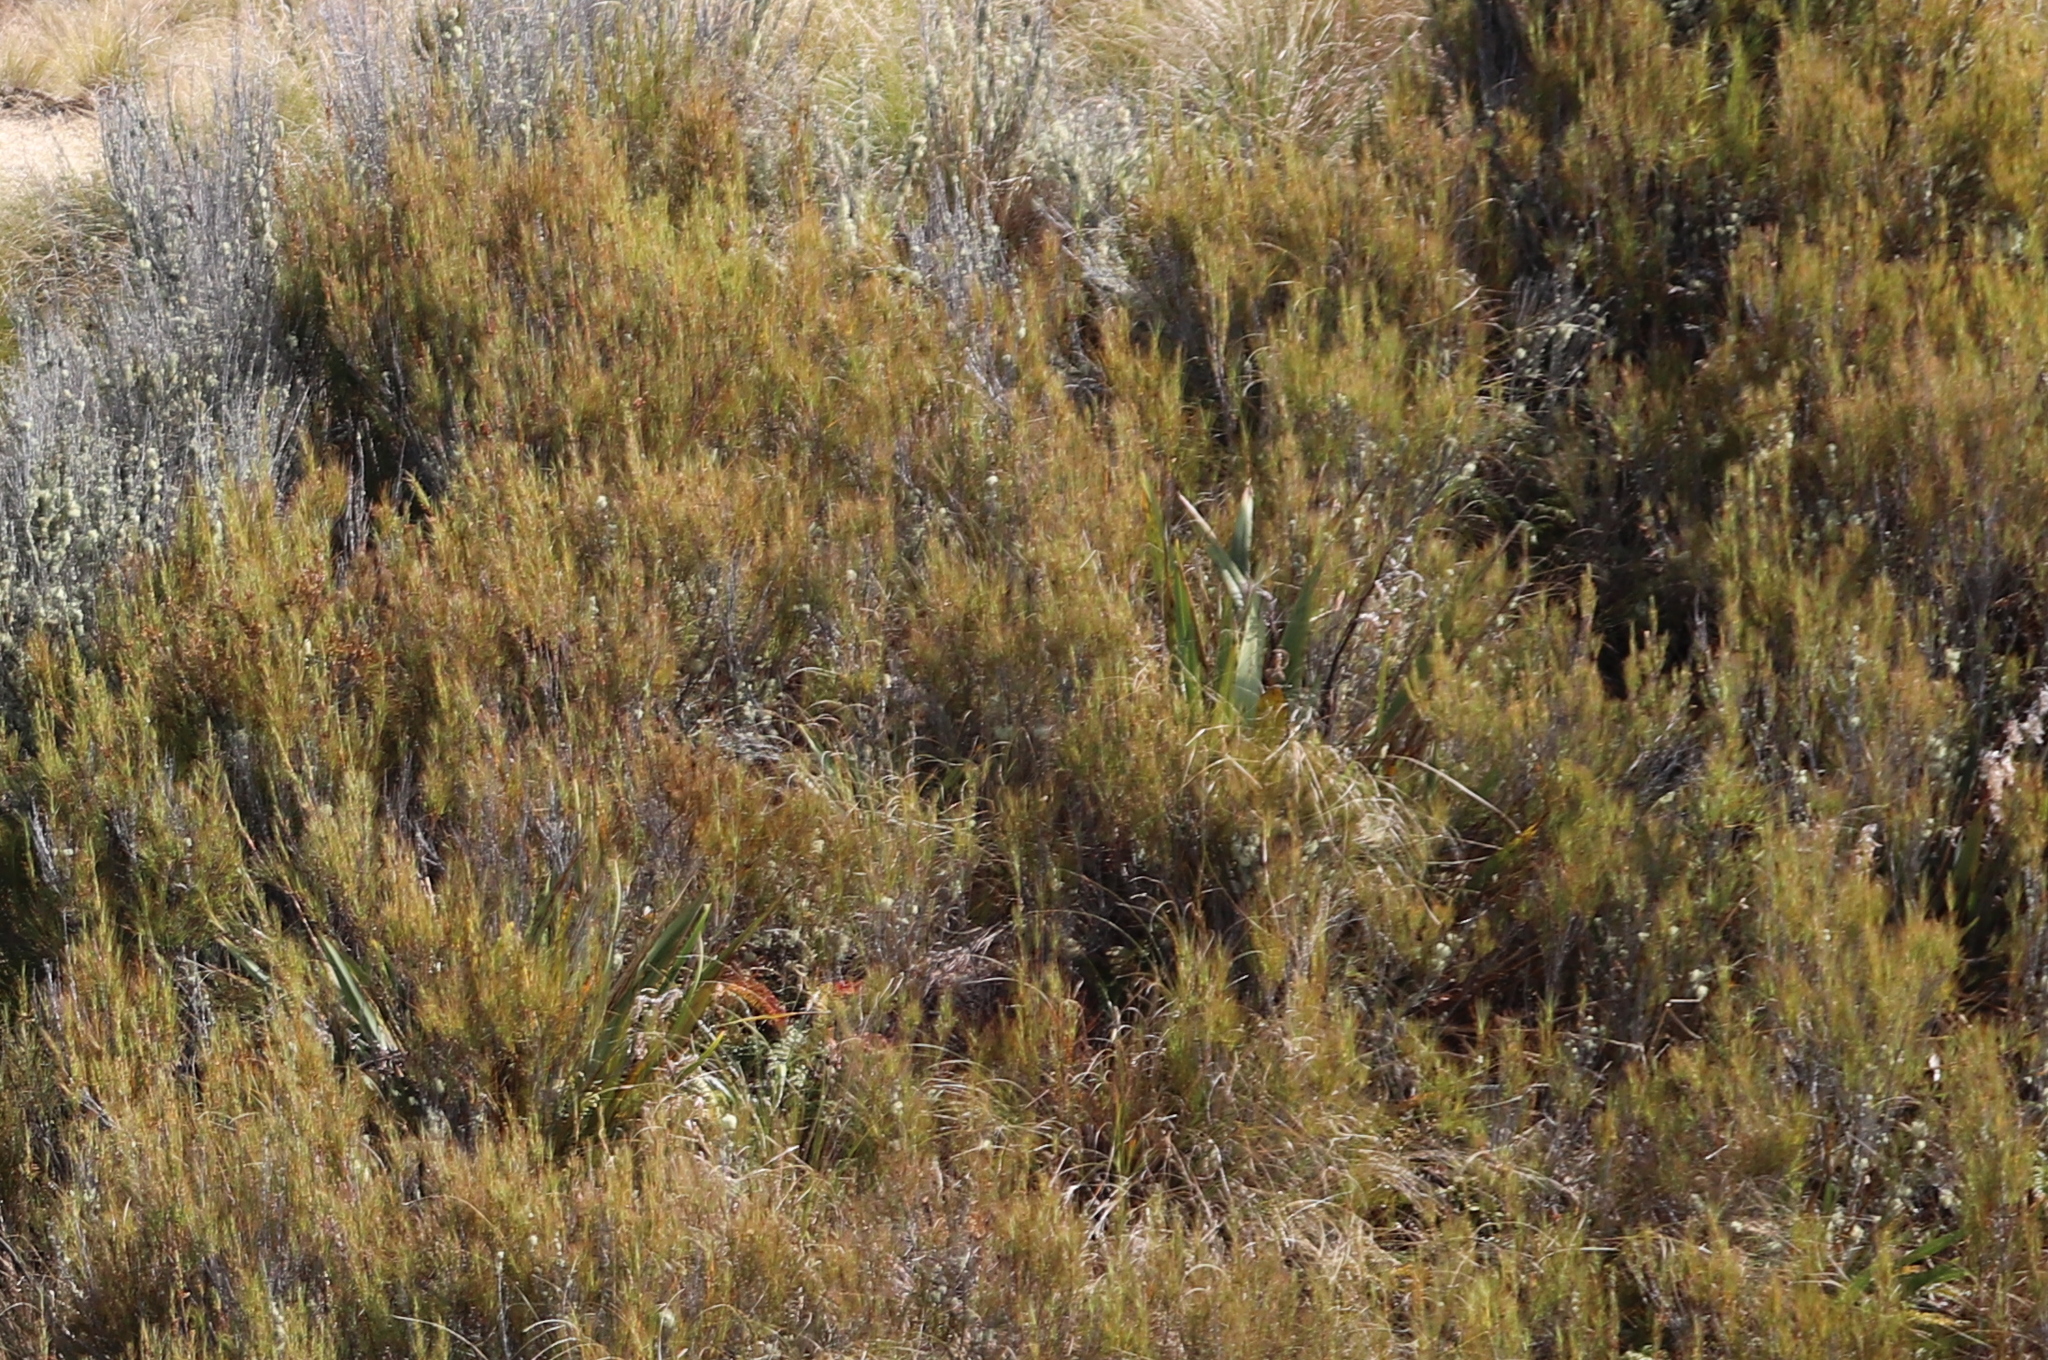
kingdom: Plantae
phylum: Tracheophyta
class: Magnoliopsida
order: Ericales
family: Ericaceae
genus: Dracophyllum
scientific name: Dracophyllum longifolium
